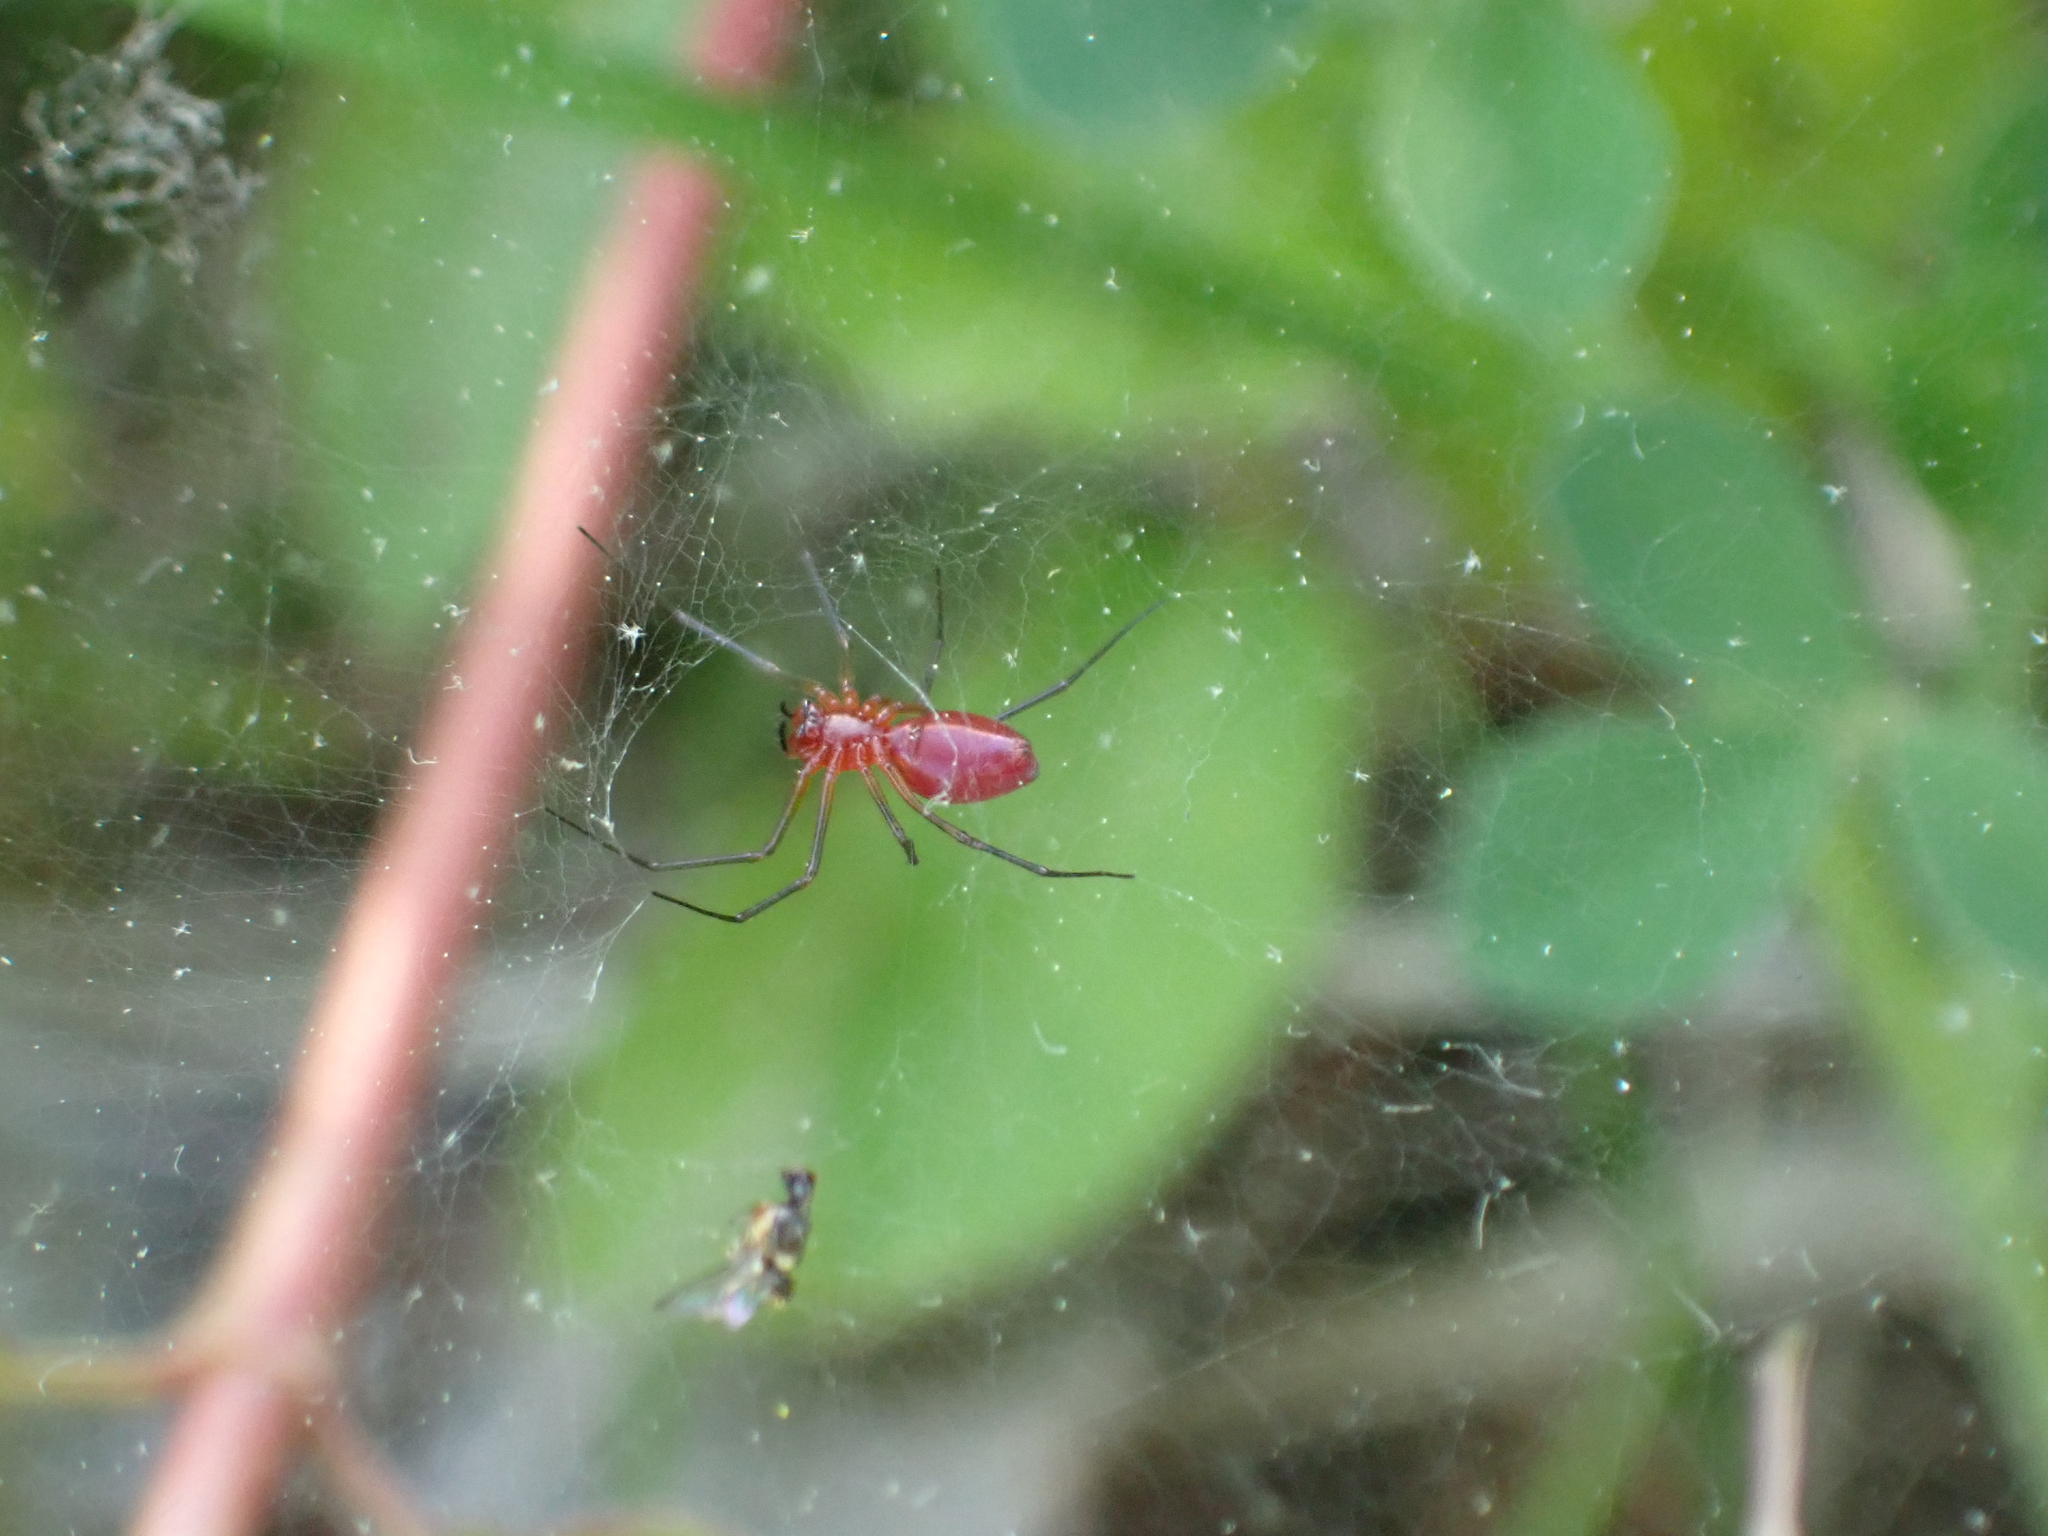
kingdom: Animalia
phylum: Arthropoda
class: Arachnida
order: Araneae
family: Linyphiidae
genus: Florinda
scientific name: Florinda coccinea
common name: Black-tailed red sheetweaver
